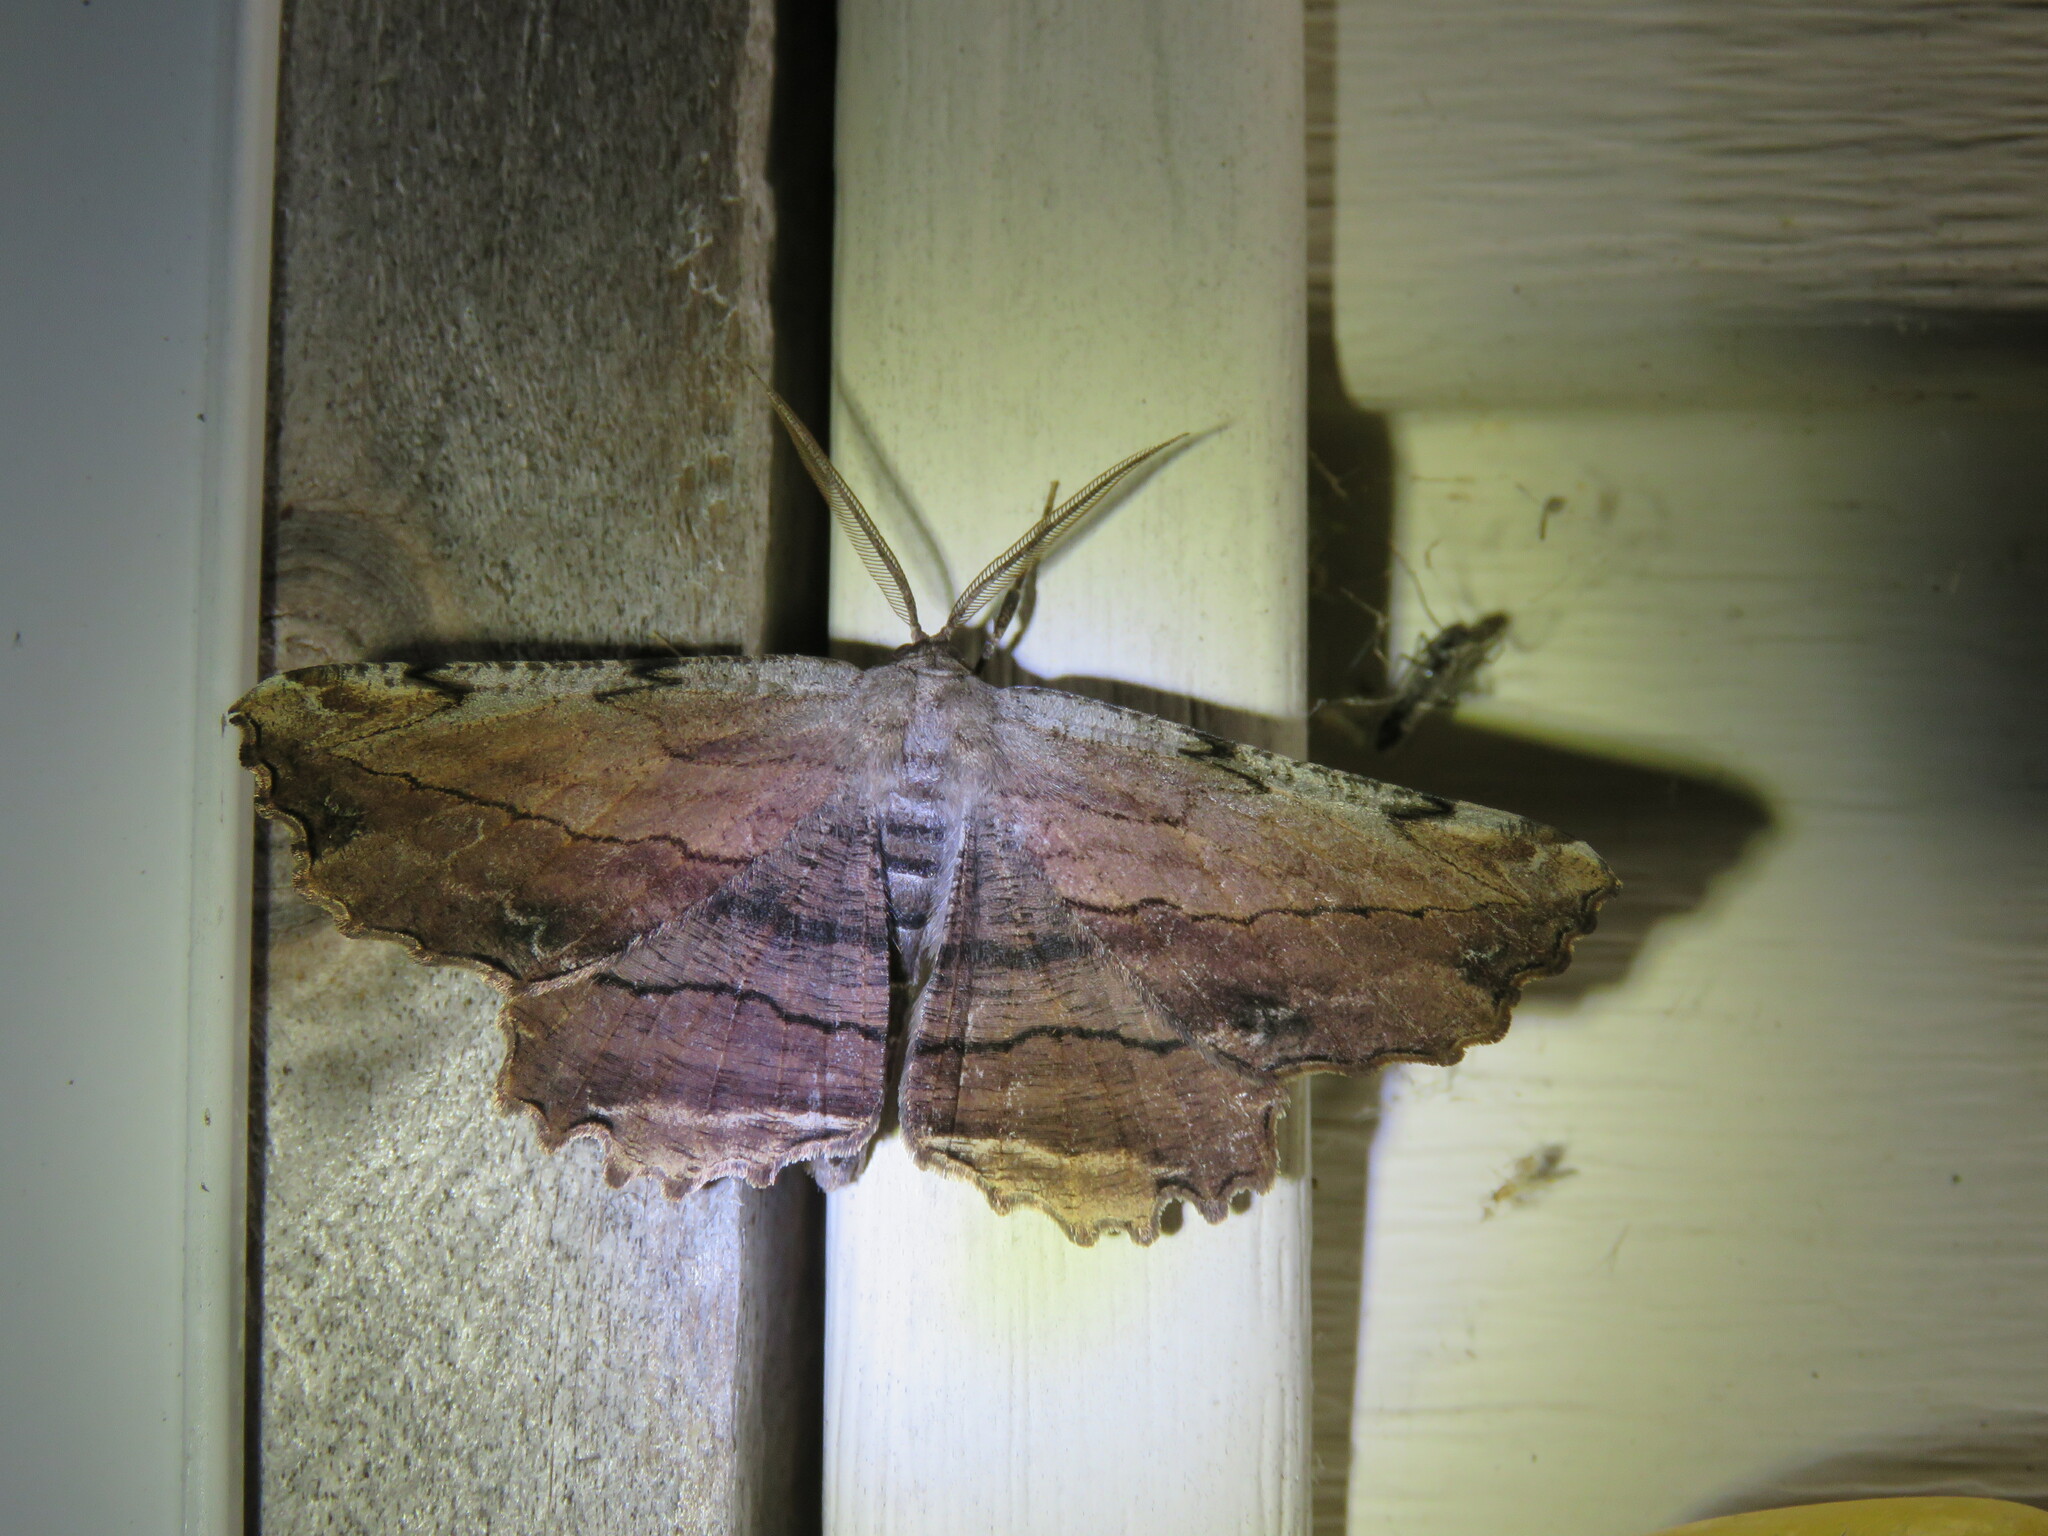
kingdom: Animalia
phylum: Arthropoda
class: Insecta
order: Lepidoptera
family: Geometridae
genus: Lytrosis
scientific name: Lytrosis unitaria
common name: Common lytrosis
